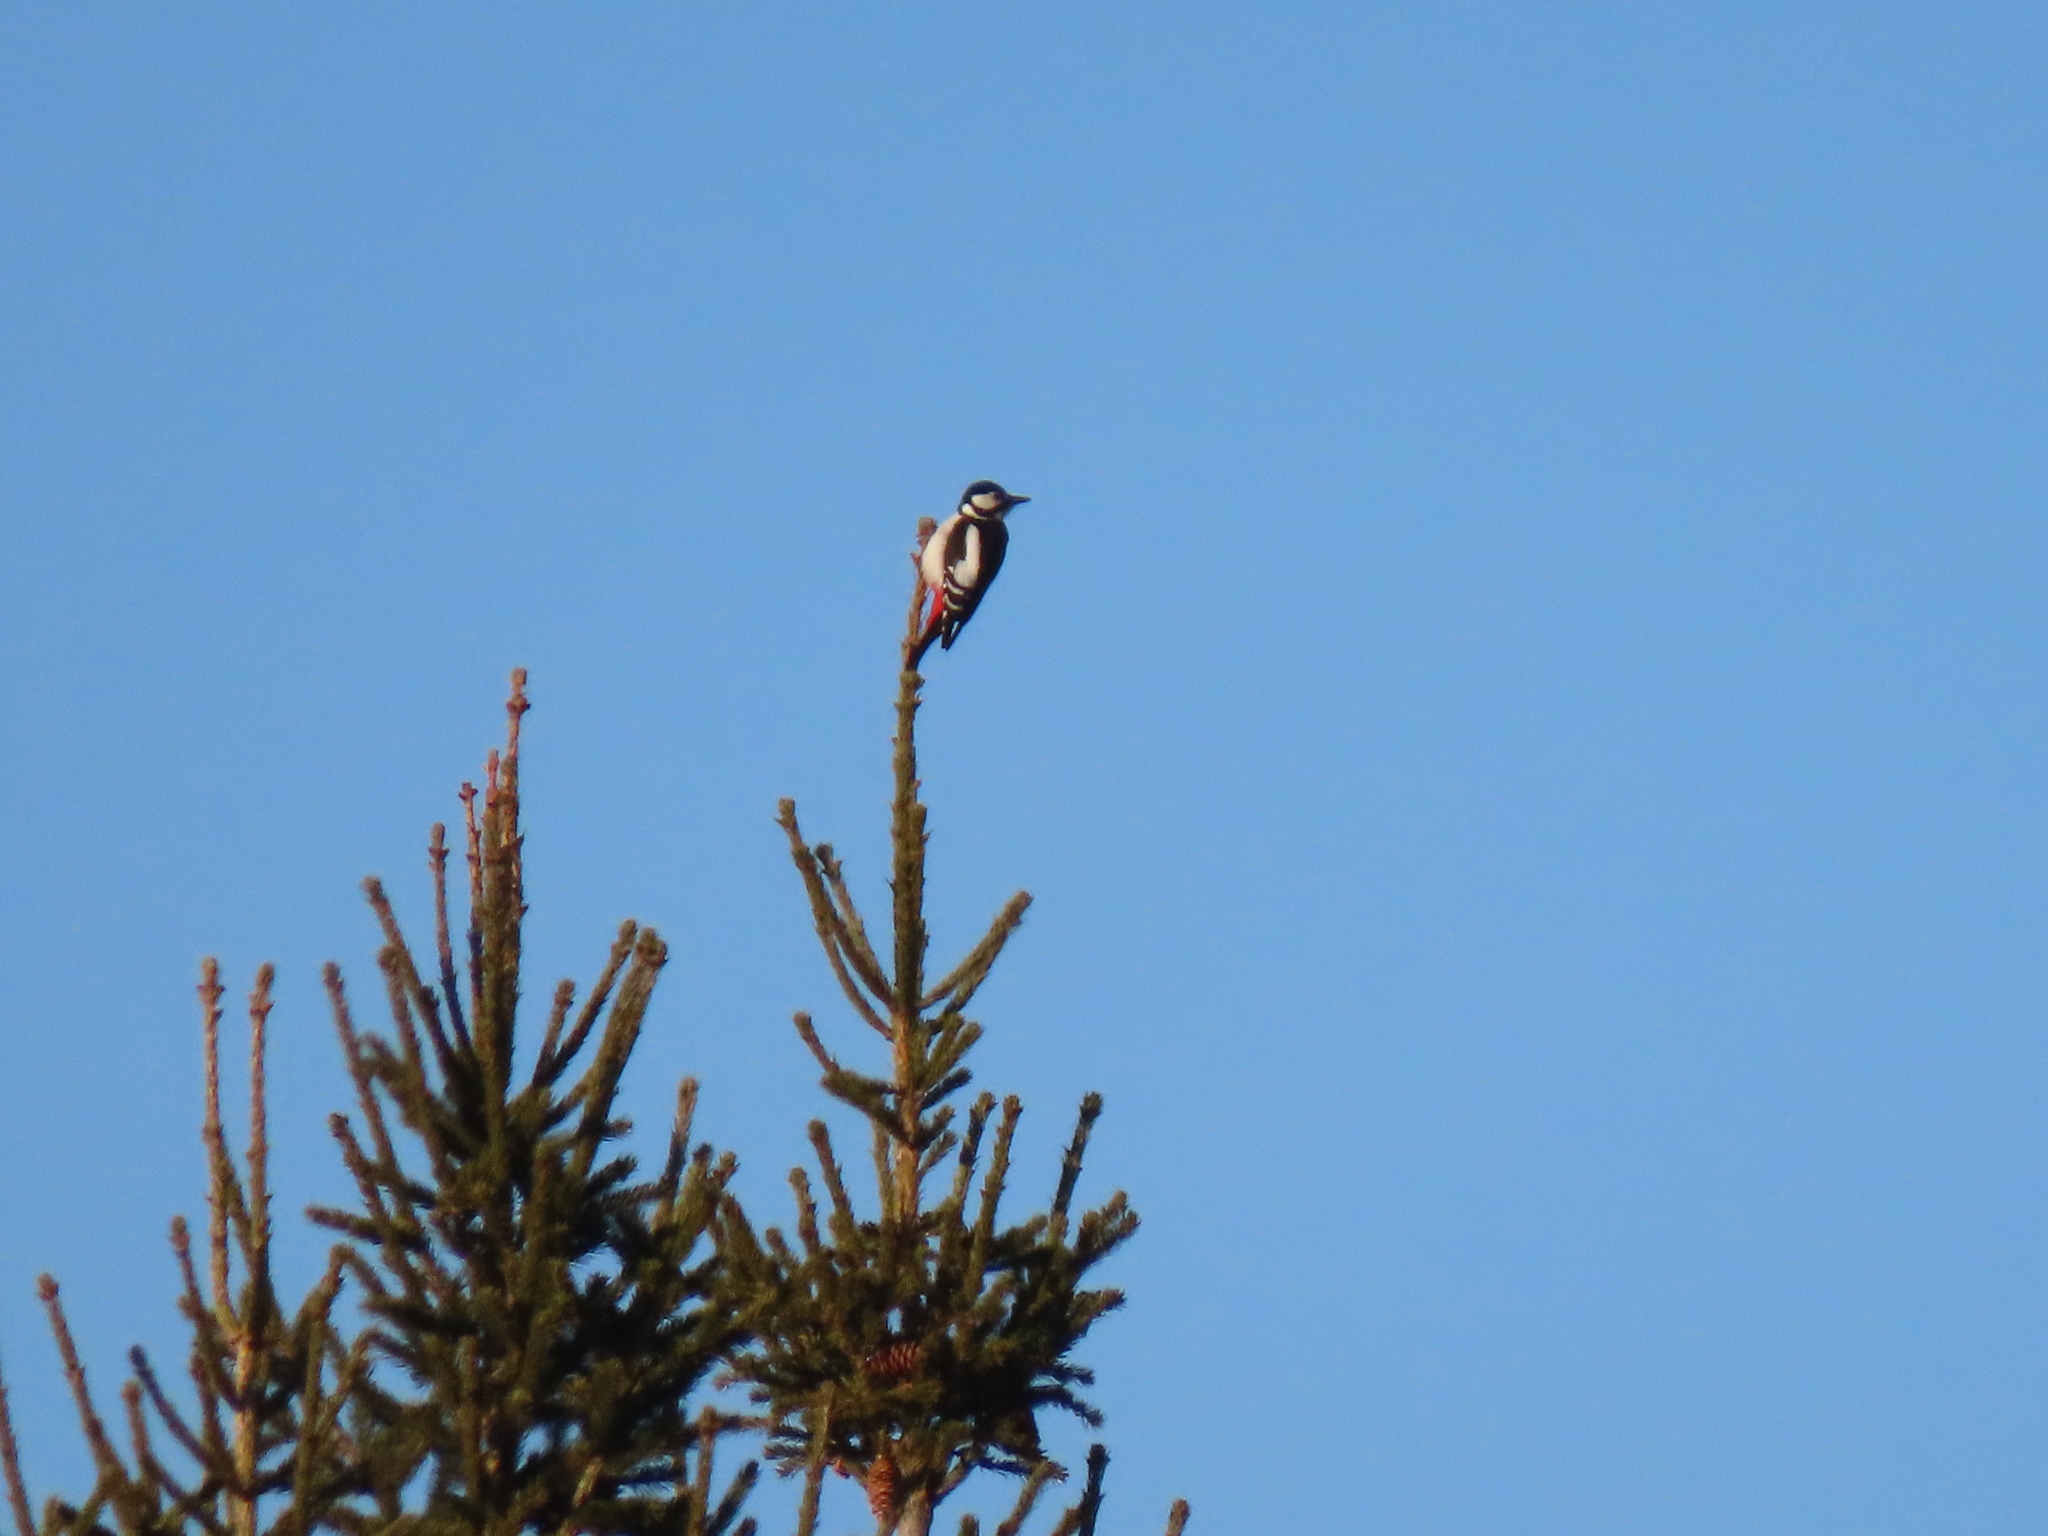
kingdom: Animalia
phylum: Chordata
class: Aves
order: Piciformes
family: Picidae
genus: Dendrocopos
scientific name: Dendrocopos major
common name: Great spotted woodpecker
